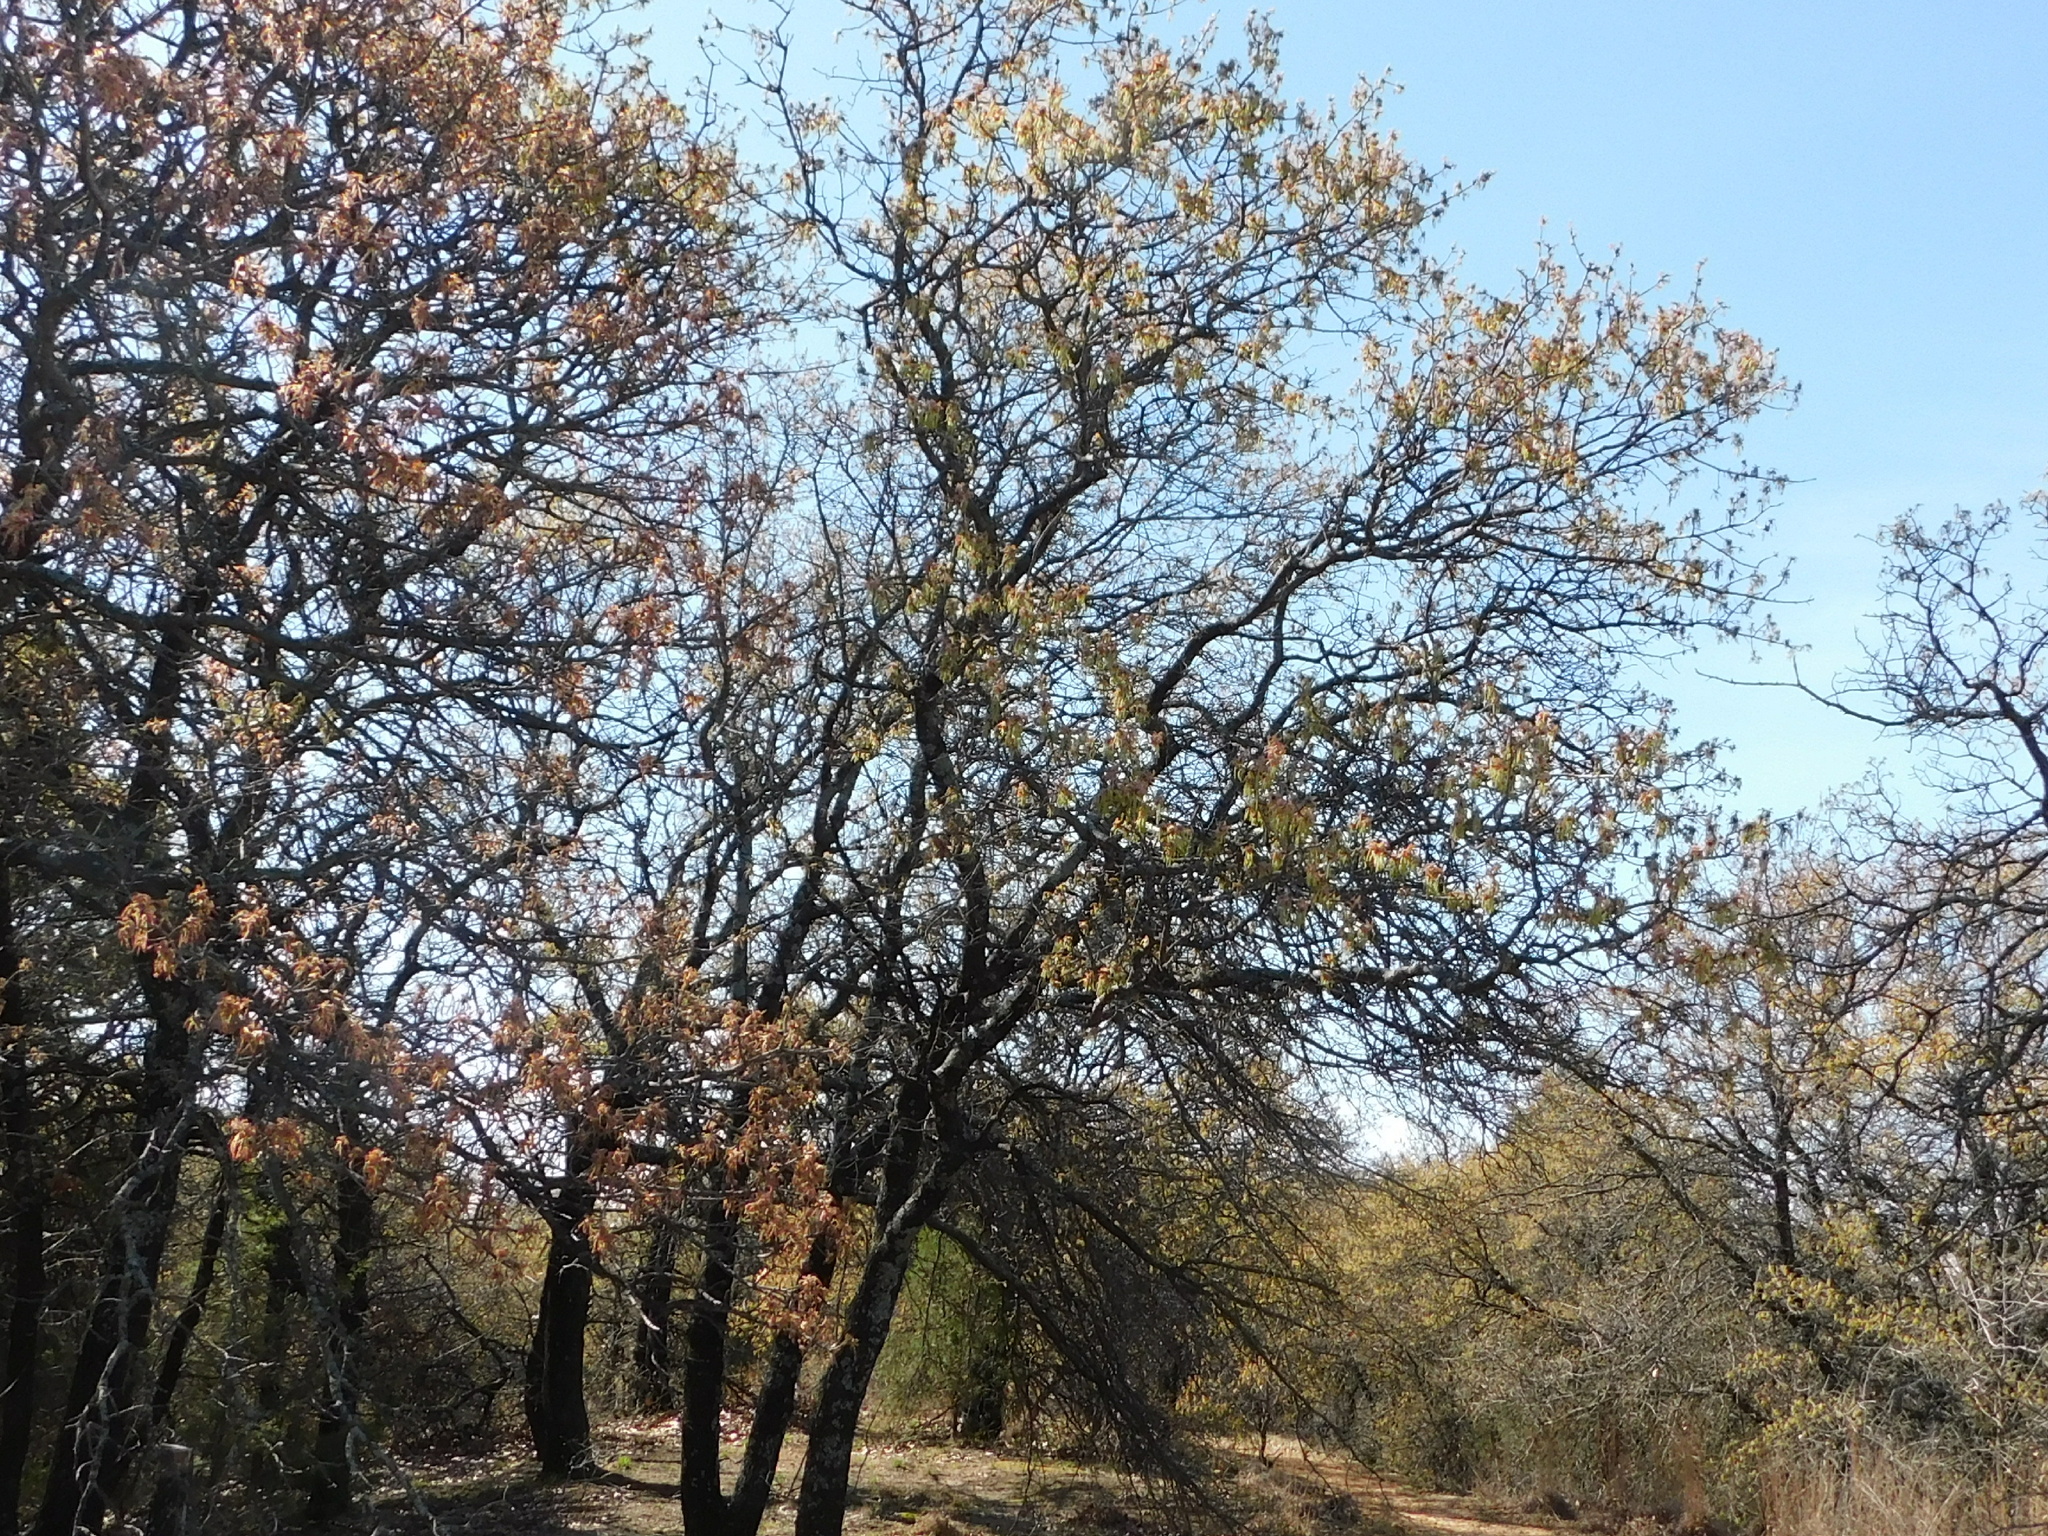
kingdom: Plantae
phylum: Tracheophyta
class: Magnoliopsida
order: Fagales
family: Fagaceae
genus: Quercus
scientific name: Quercus marilandica
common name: Blackjack oak
